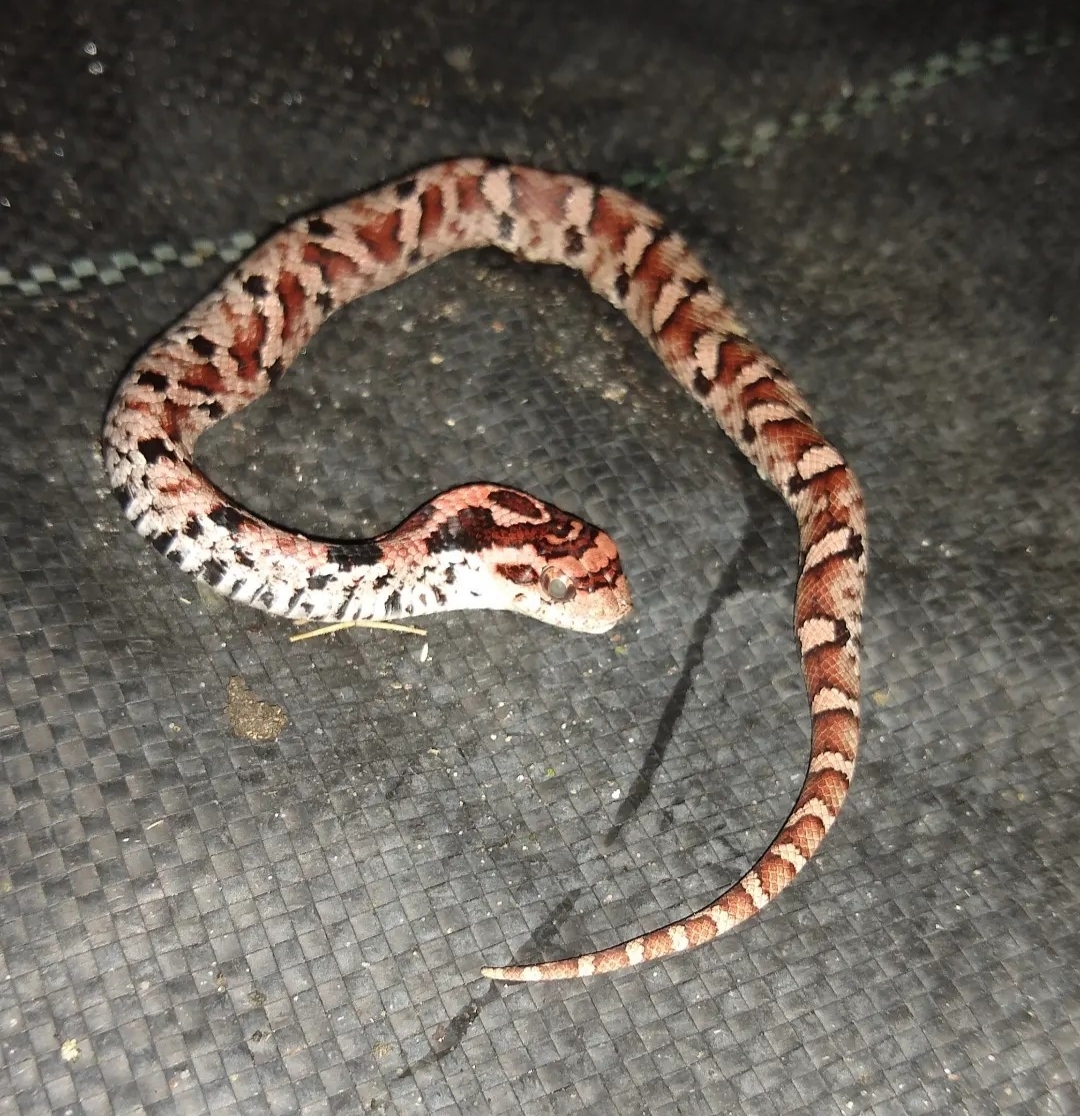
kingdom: Animalia
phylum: Chordata
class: Squamata
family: Colubridae
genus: Heterodon
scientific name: Heterodon platirhinos
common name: Eastern hognose snake
